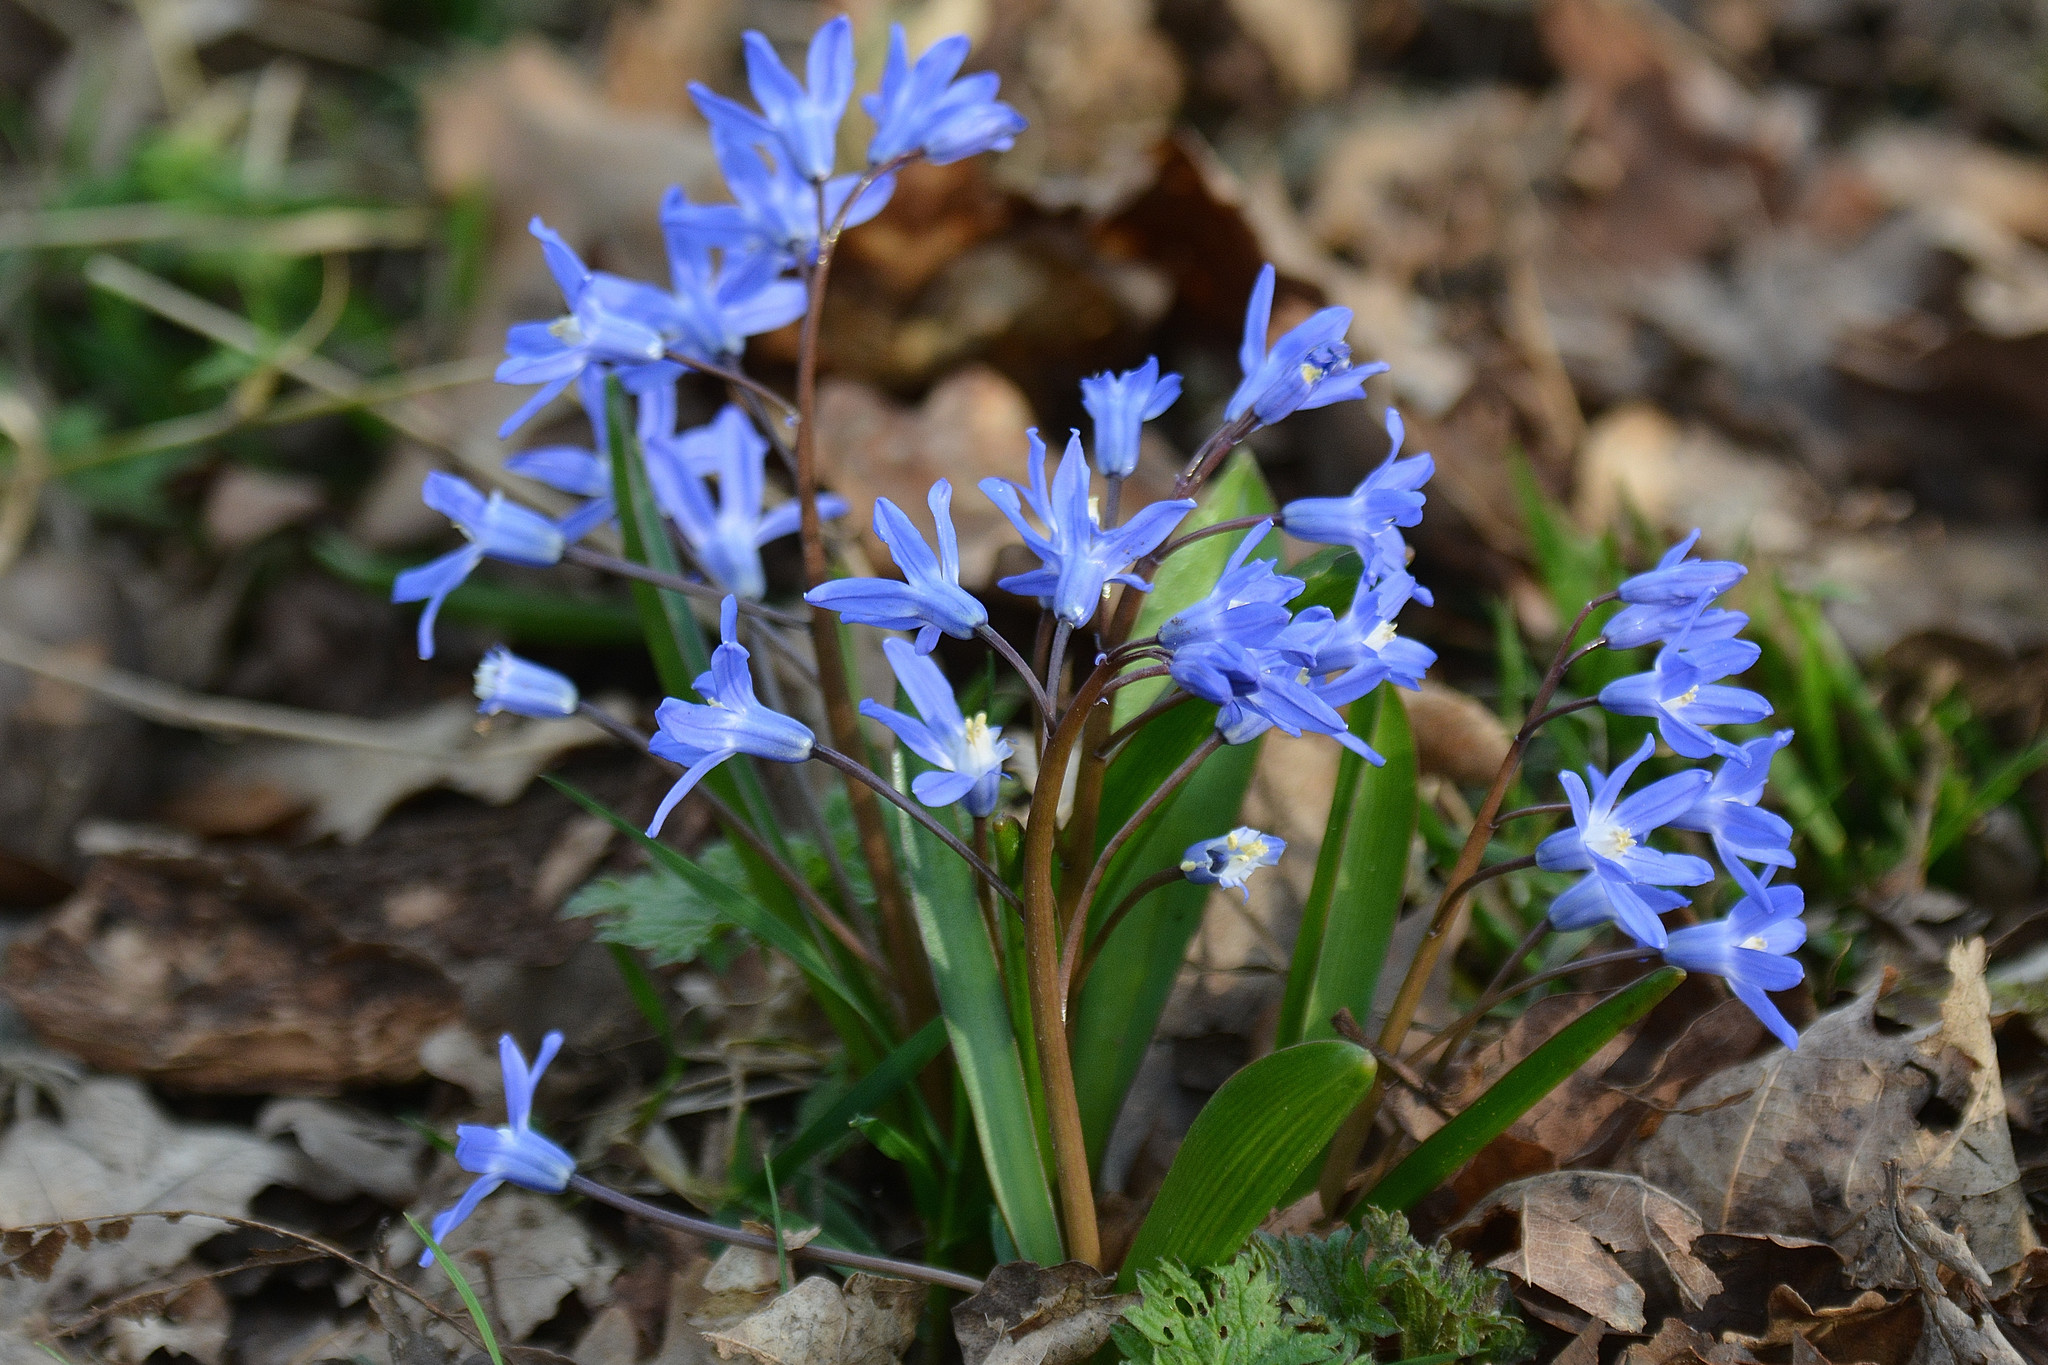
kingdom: Plantae
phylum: Tracheophyta
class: Liliopsida
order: Asparagales
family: Asparagaceae
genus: Scilla
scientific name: Scilla forbesii
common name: Glory-of-the-snow
